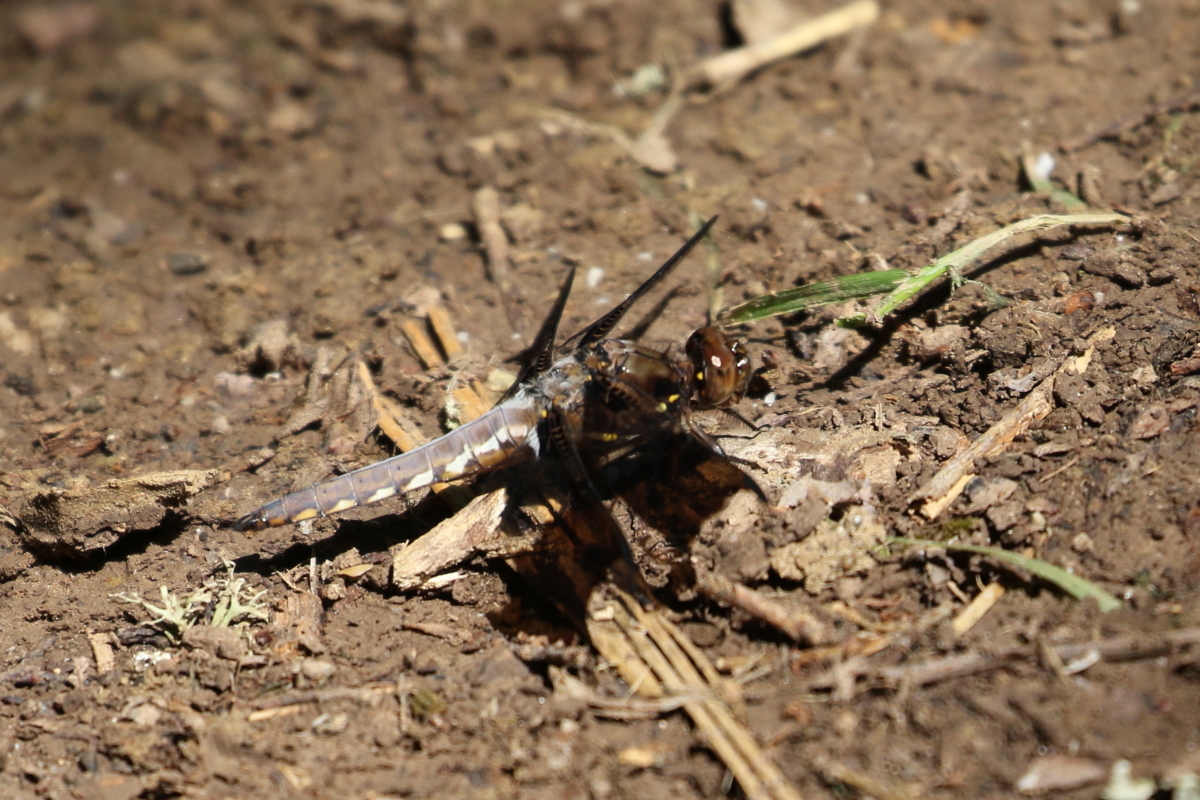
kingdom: Animalia
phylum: Arthropoda
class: Insecta
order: Odonata
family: Libellulidae
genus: Plathemis
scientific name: Plathemis lydia
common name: Common whitetail
